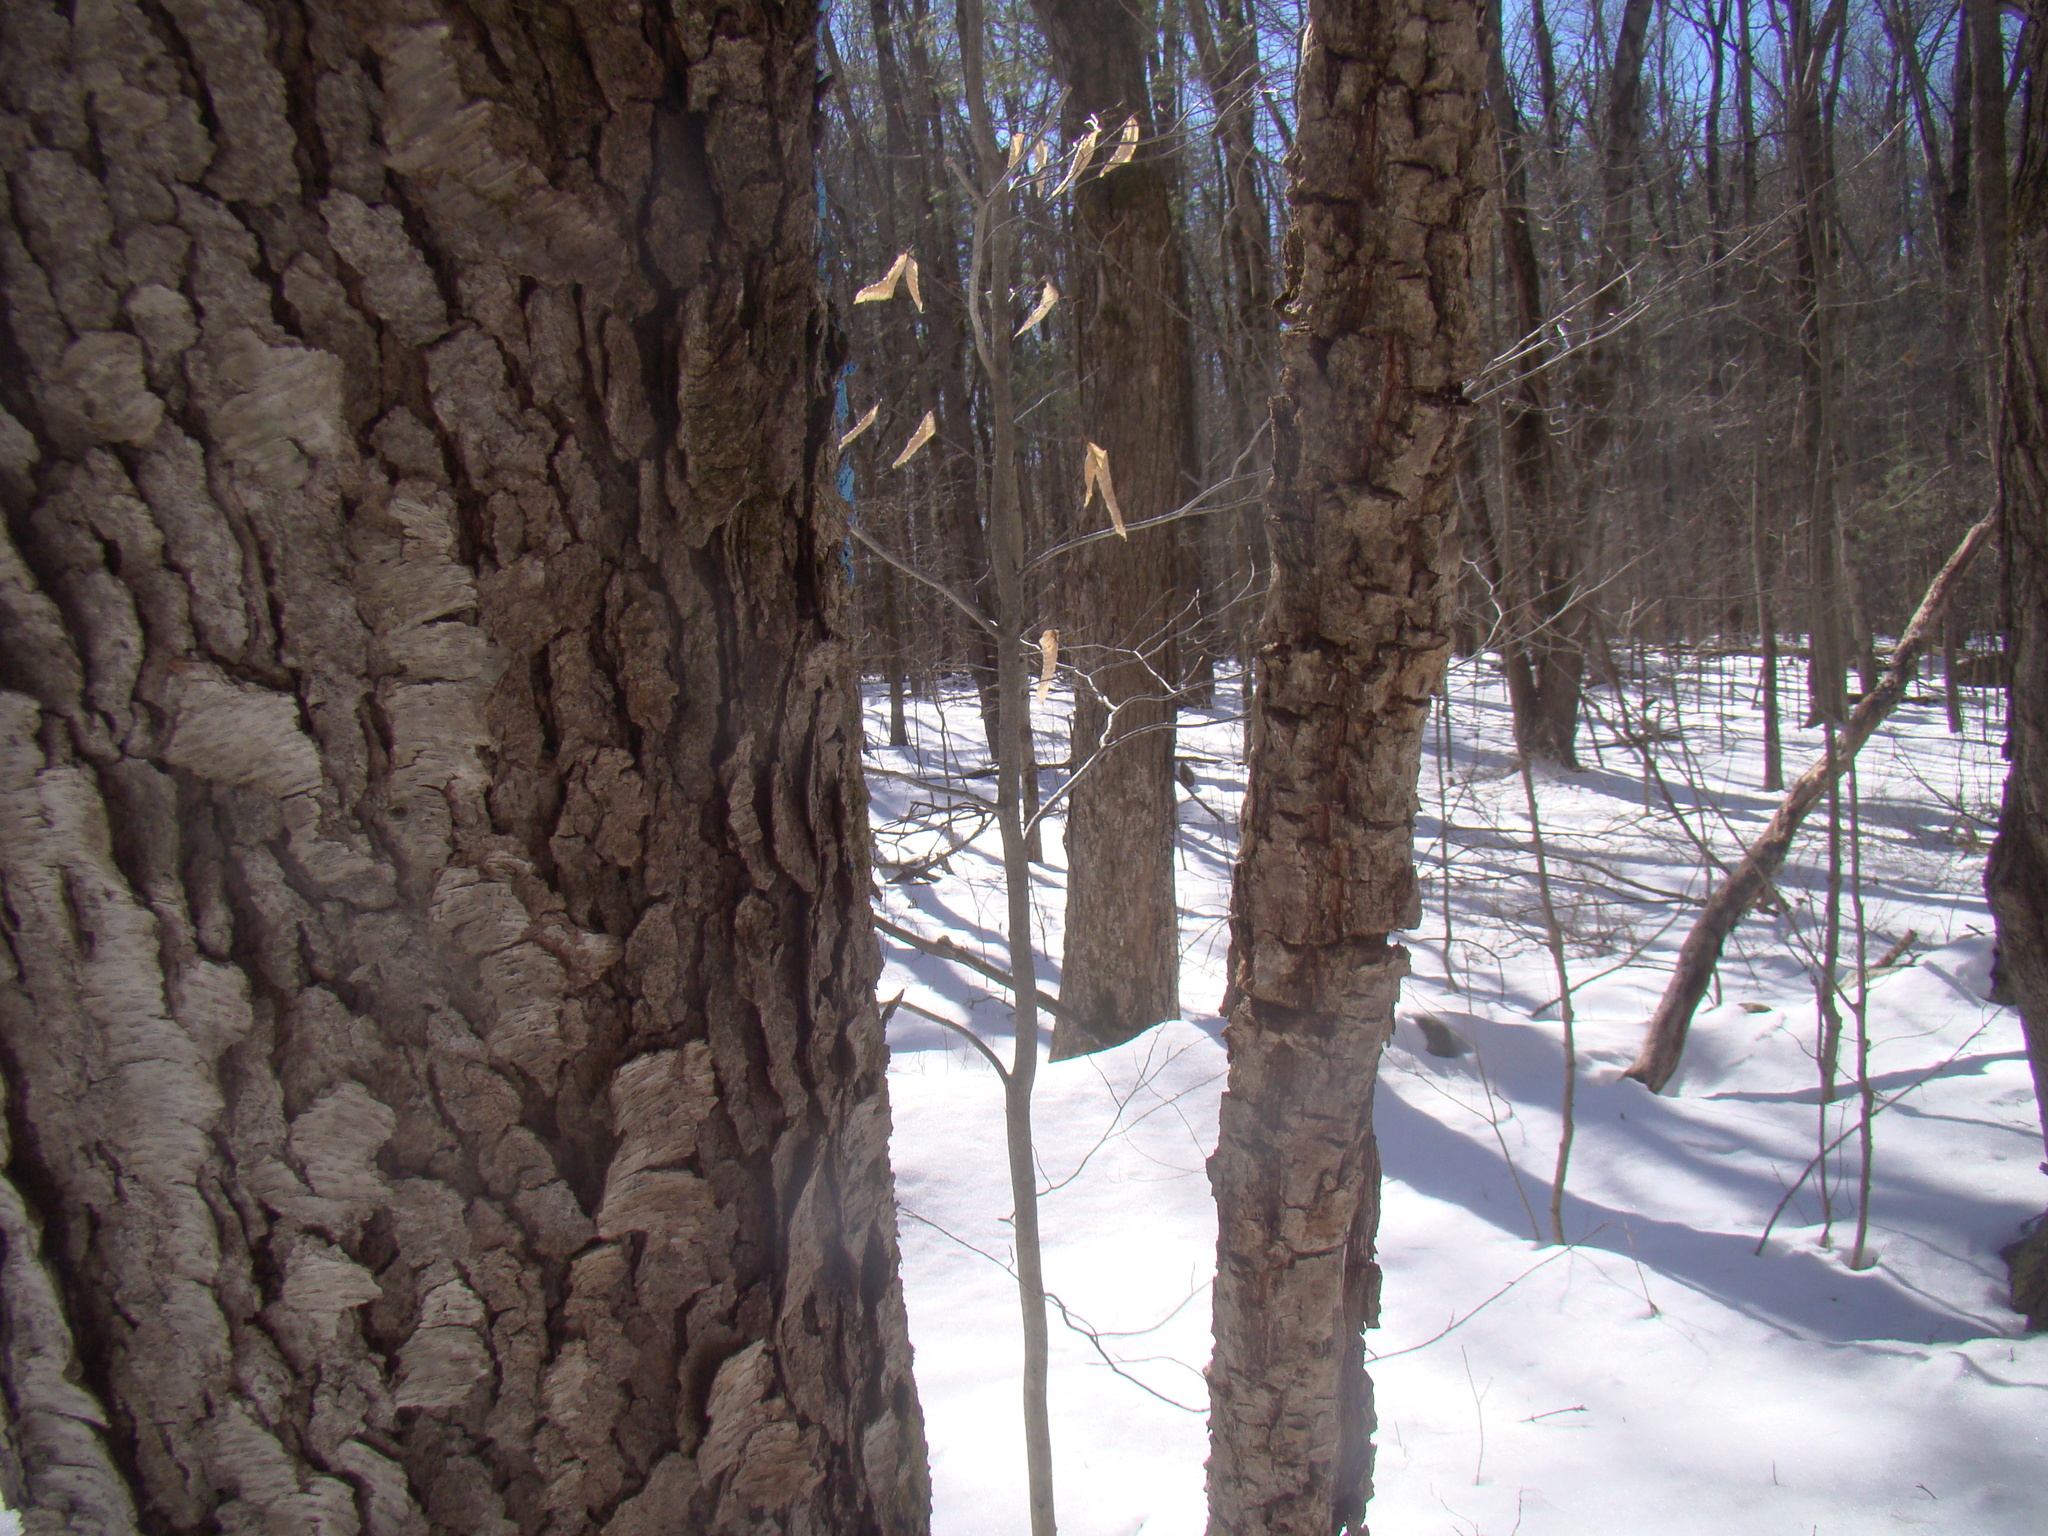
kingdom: Plantae
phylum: Tracheophyta
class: Magnoliopsida
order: Rosales
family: Rosaceae
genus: Prunus
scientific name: Prunus serotina
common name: Black cherry
